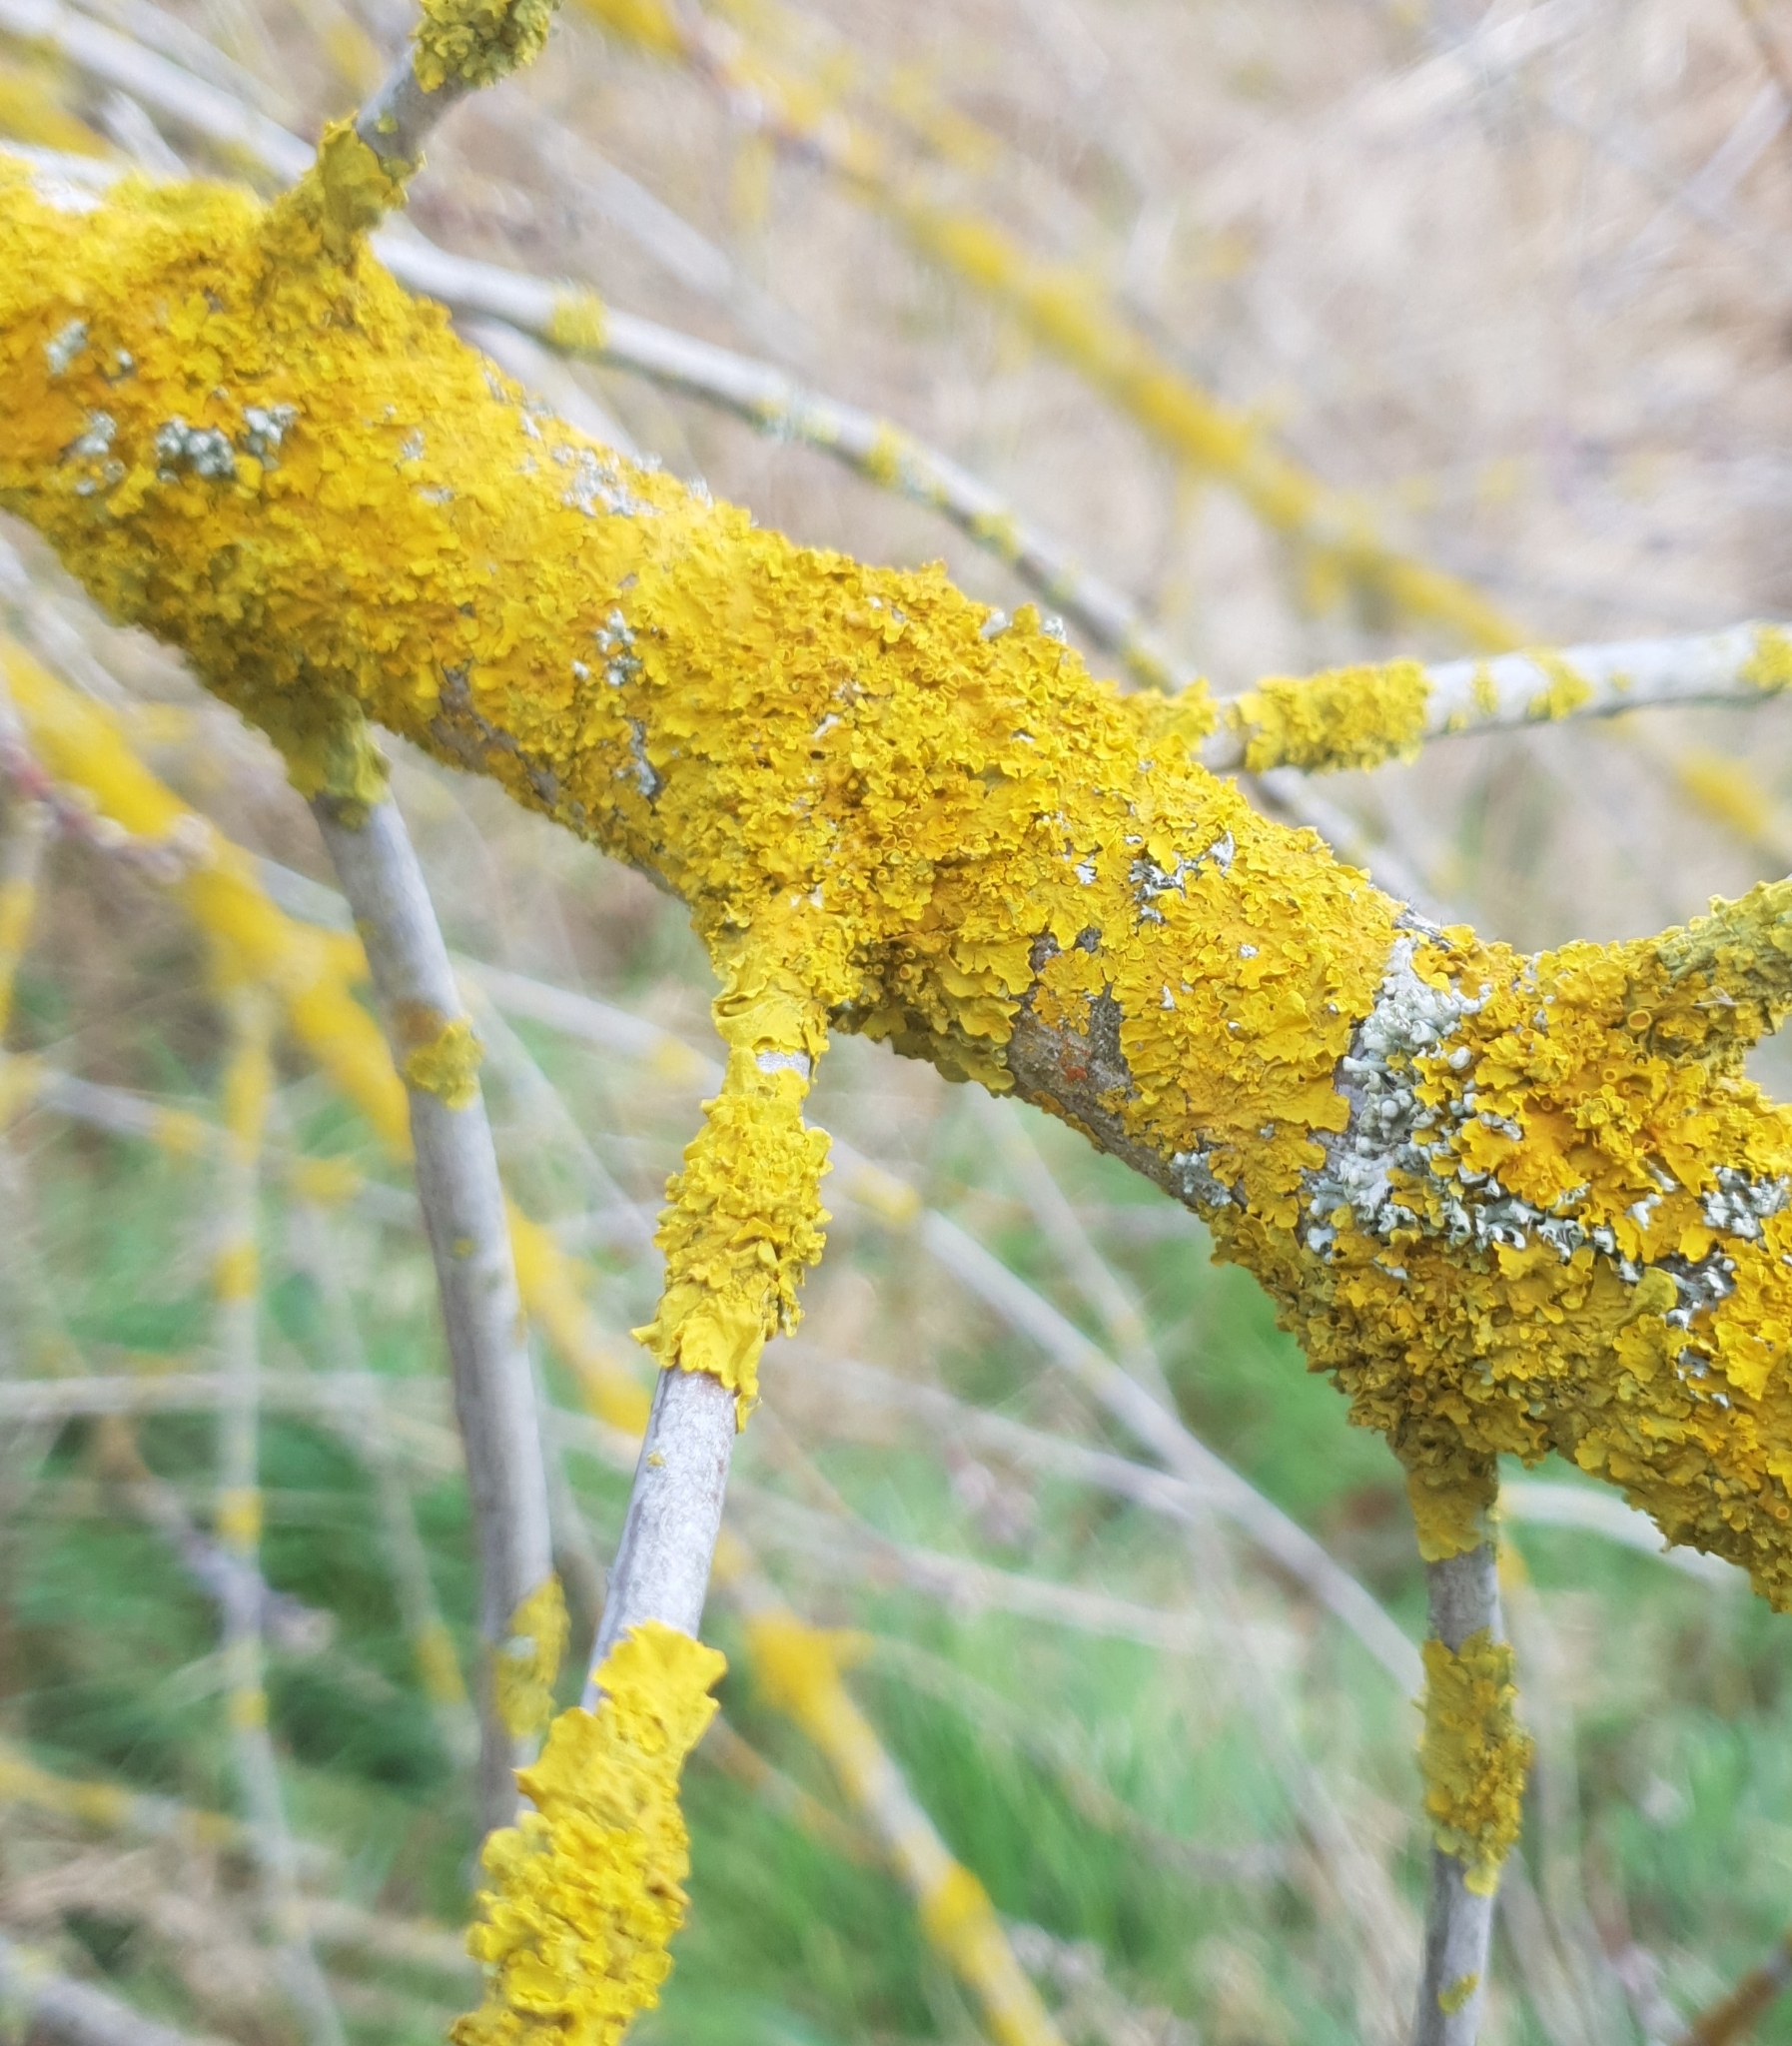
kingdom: Fungi
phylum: Ascomycota
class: Lecanoromycetes
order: Teloschistales
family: Teloschistaceae
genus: Xanthoria
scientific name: Xanthoria parietina
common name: Common orange lichen
